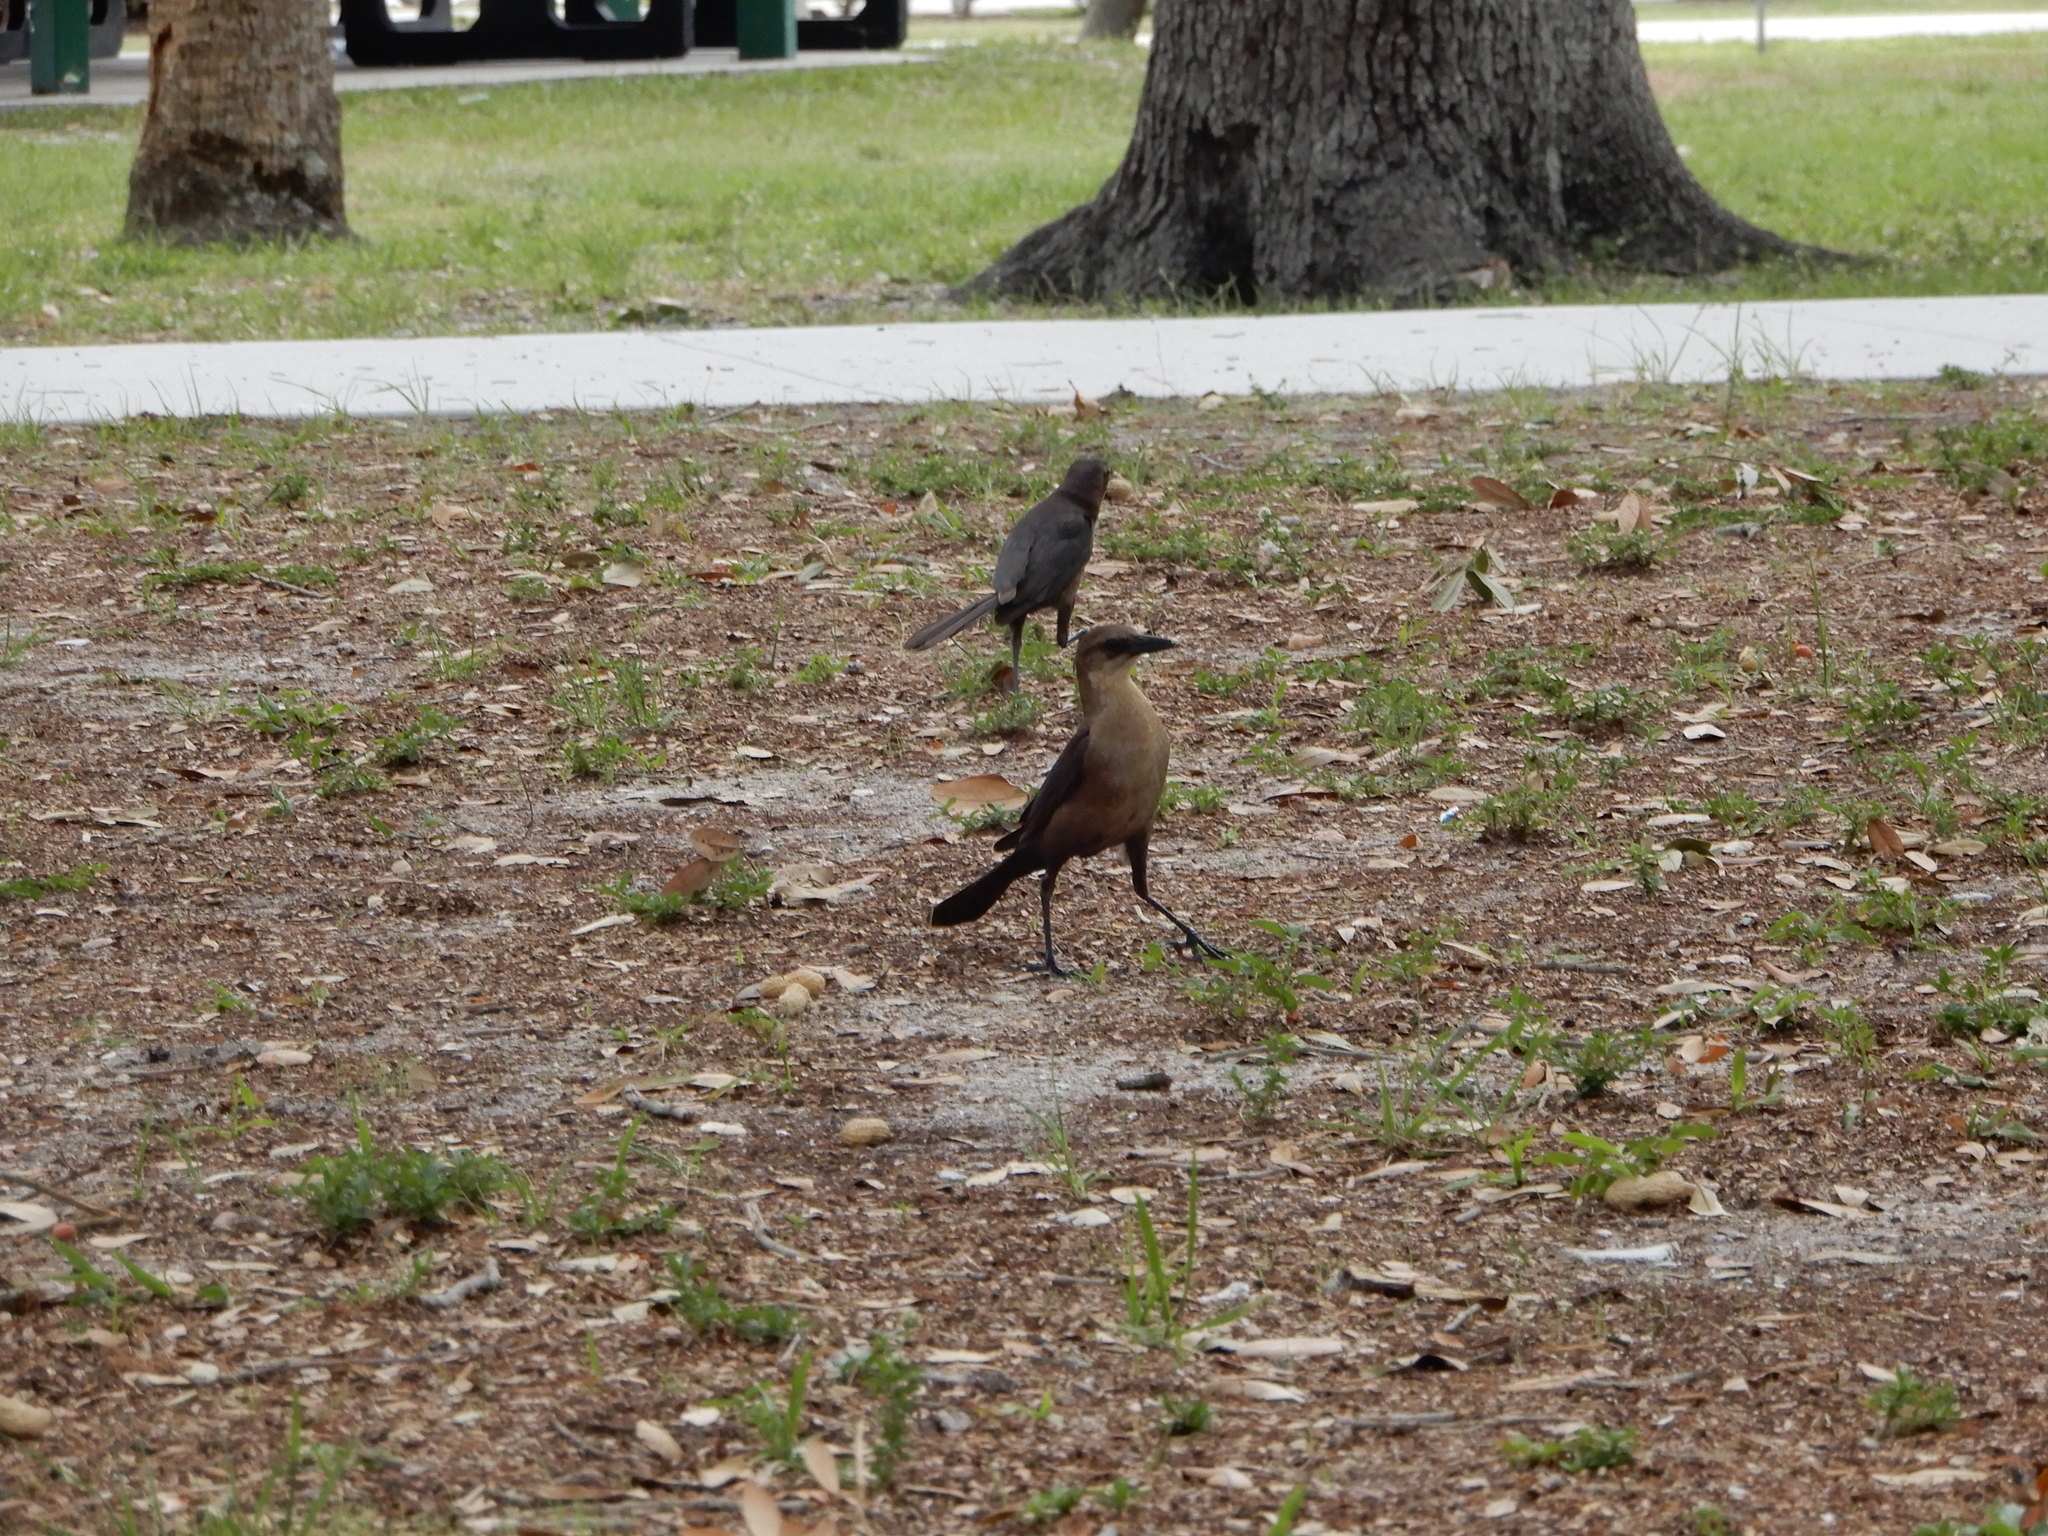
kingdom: Animalia
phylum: Chordata
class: Aves
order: Passeriformes
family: Icteridae
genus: Quiscalus
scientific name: Quiscalus major
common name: Boat-tailed grackle
